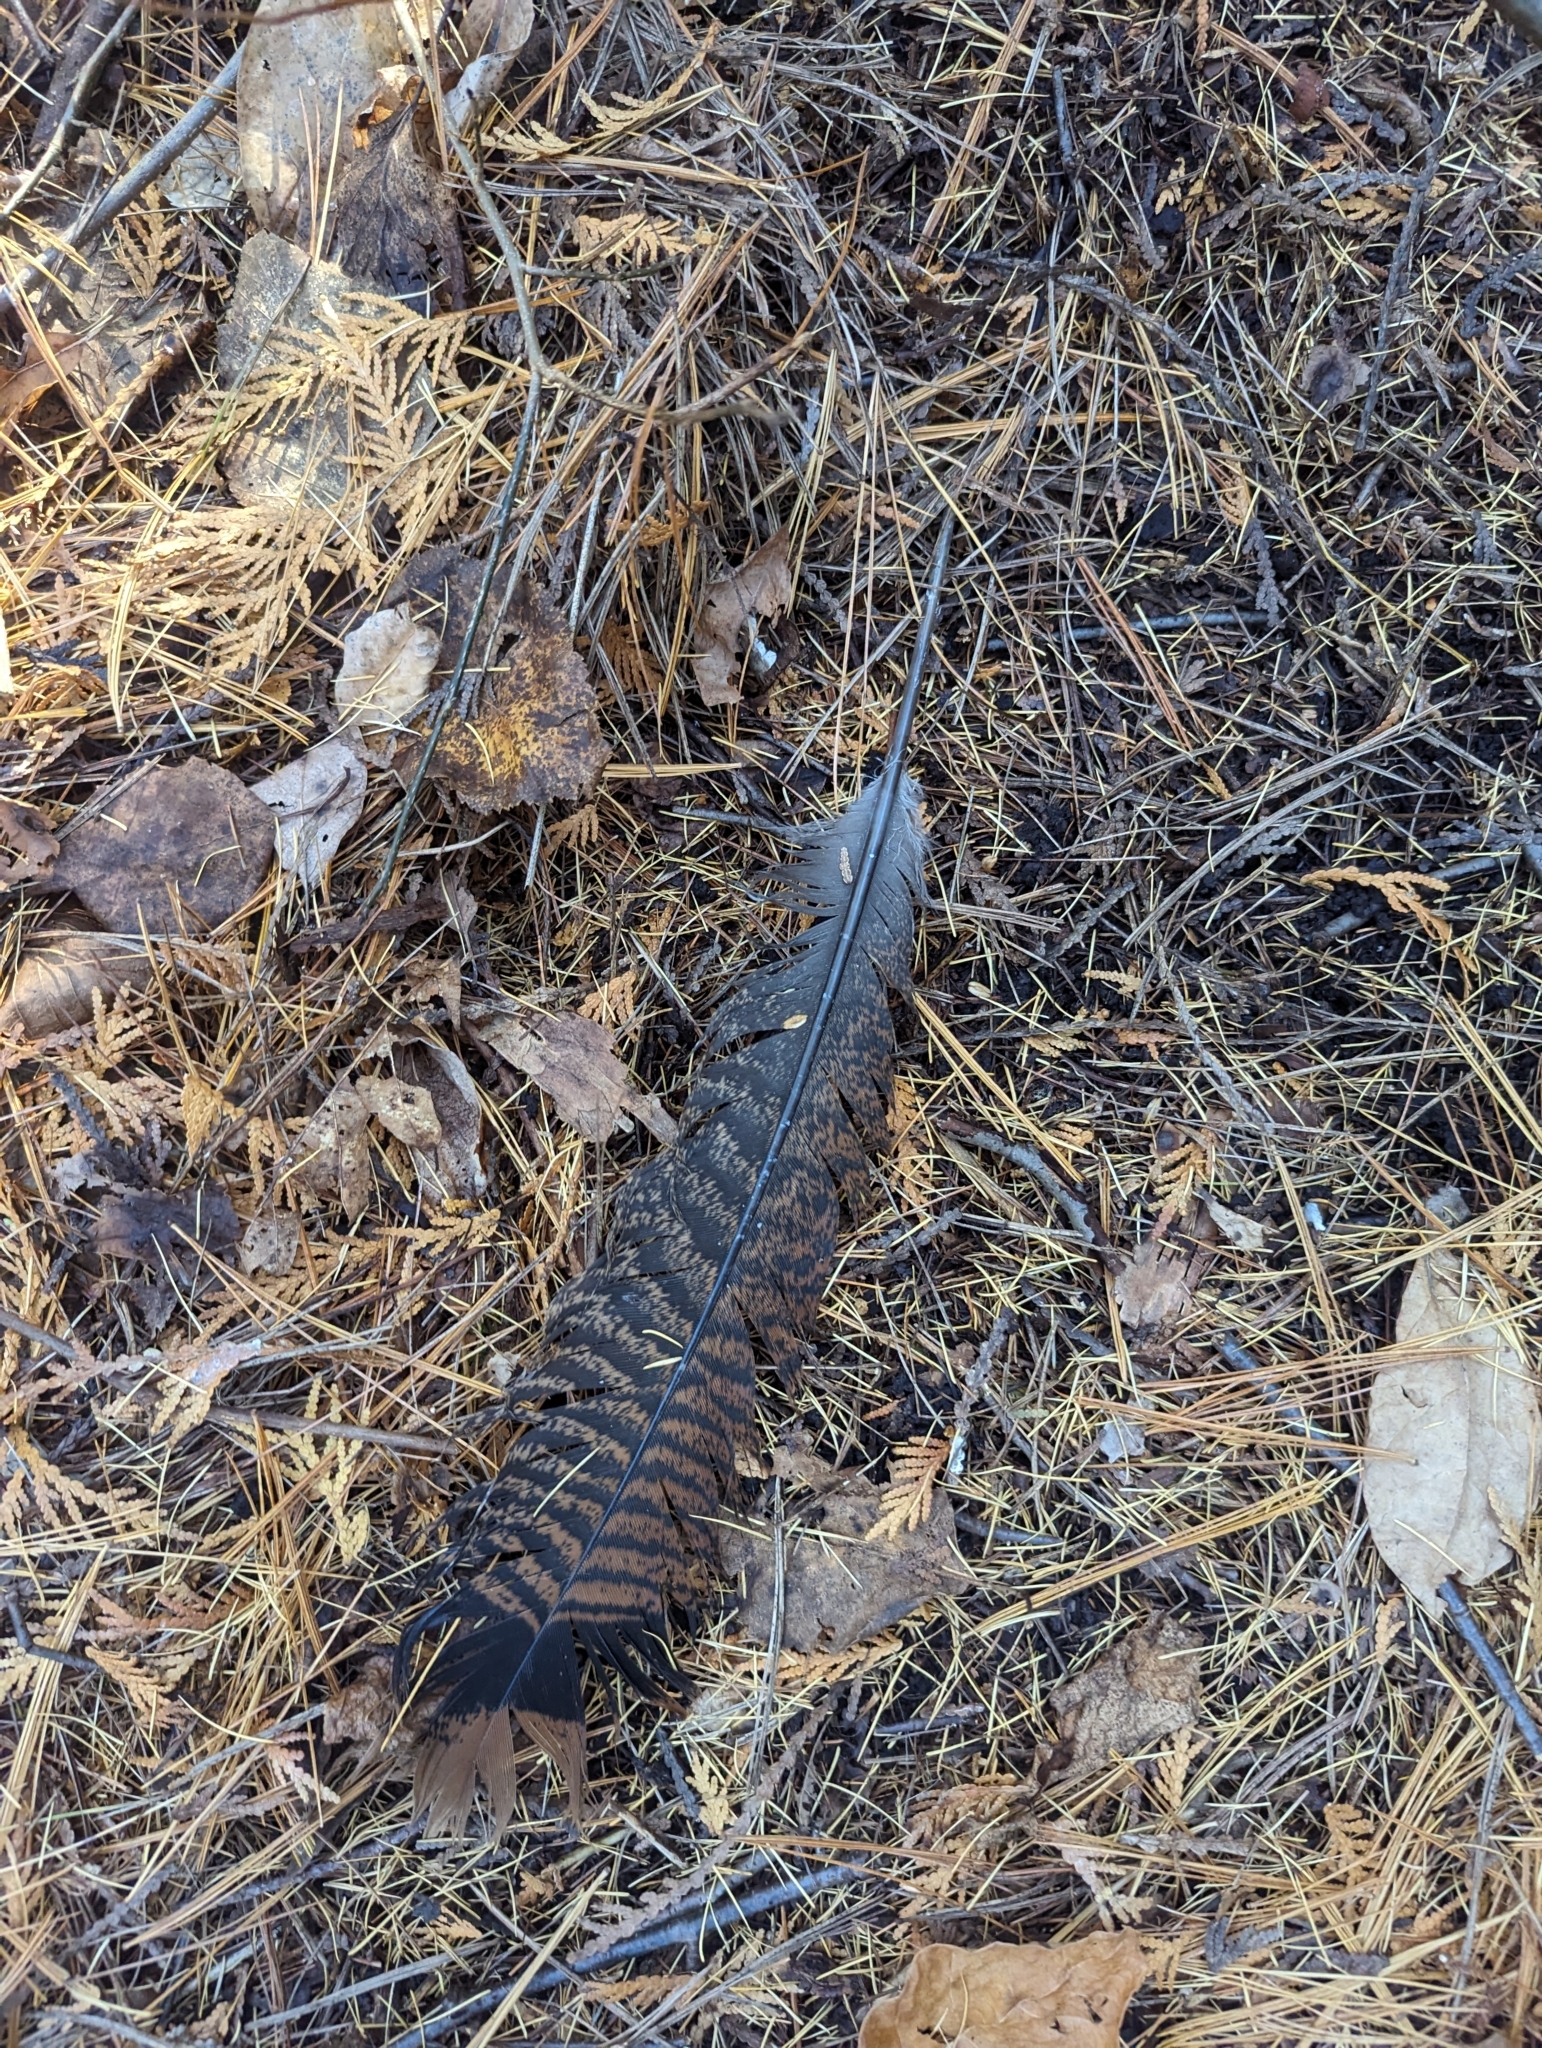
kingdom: Animalia
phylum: Chordata
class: Aves
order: Galliformes
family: Phasianidae
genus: Meleagris
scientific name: Meleagris gallopavo
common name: Wild turkey
